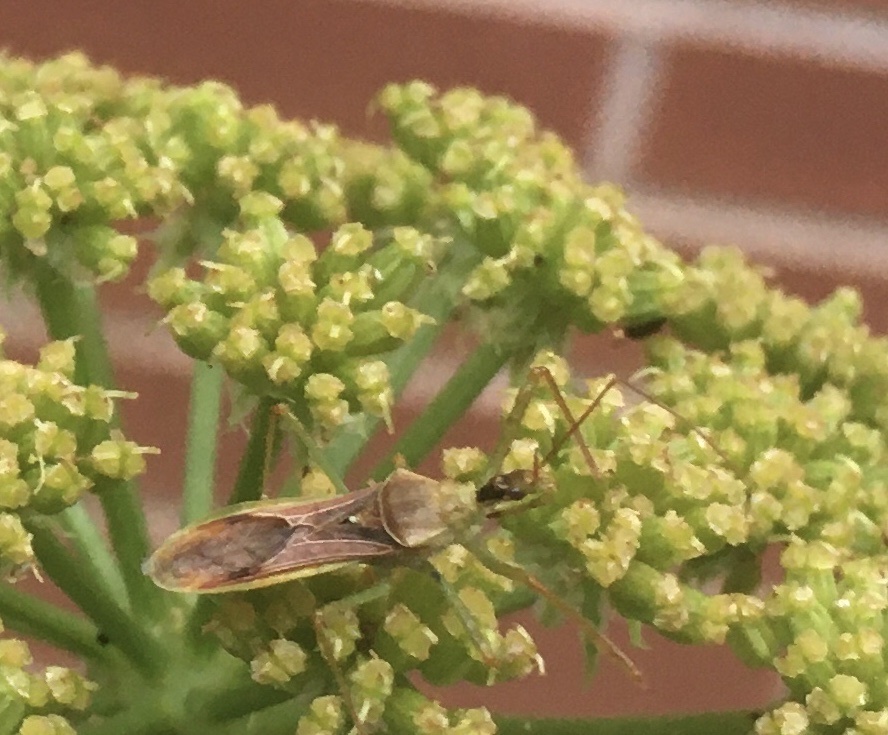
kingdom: Animalia
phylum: Arthropoda
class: Insecta
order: Hemiptera
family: Reduviidae
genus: Zelus
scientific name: Zelus renardii
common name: Assassin bug
